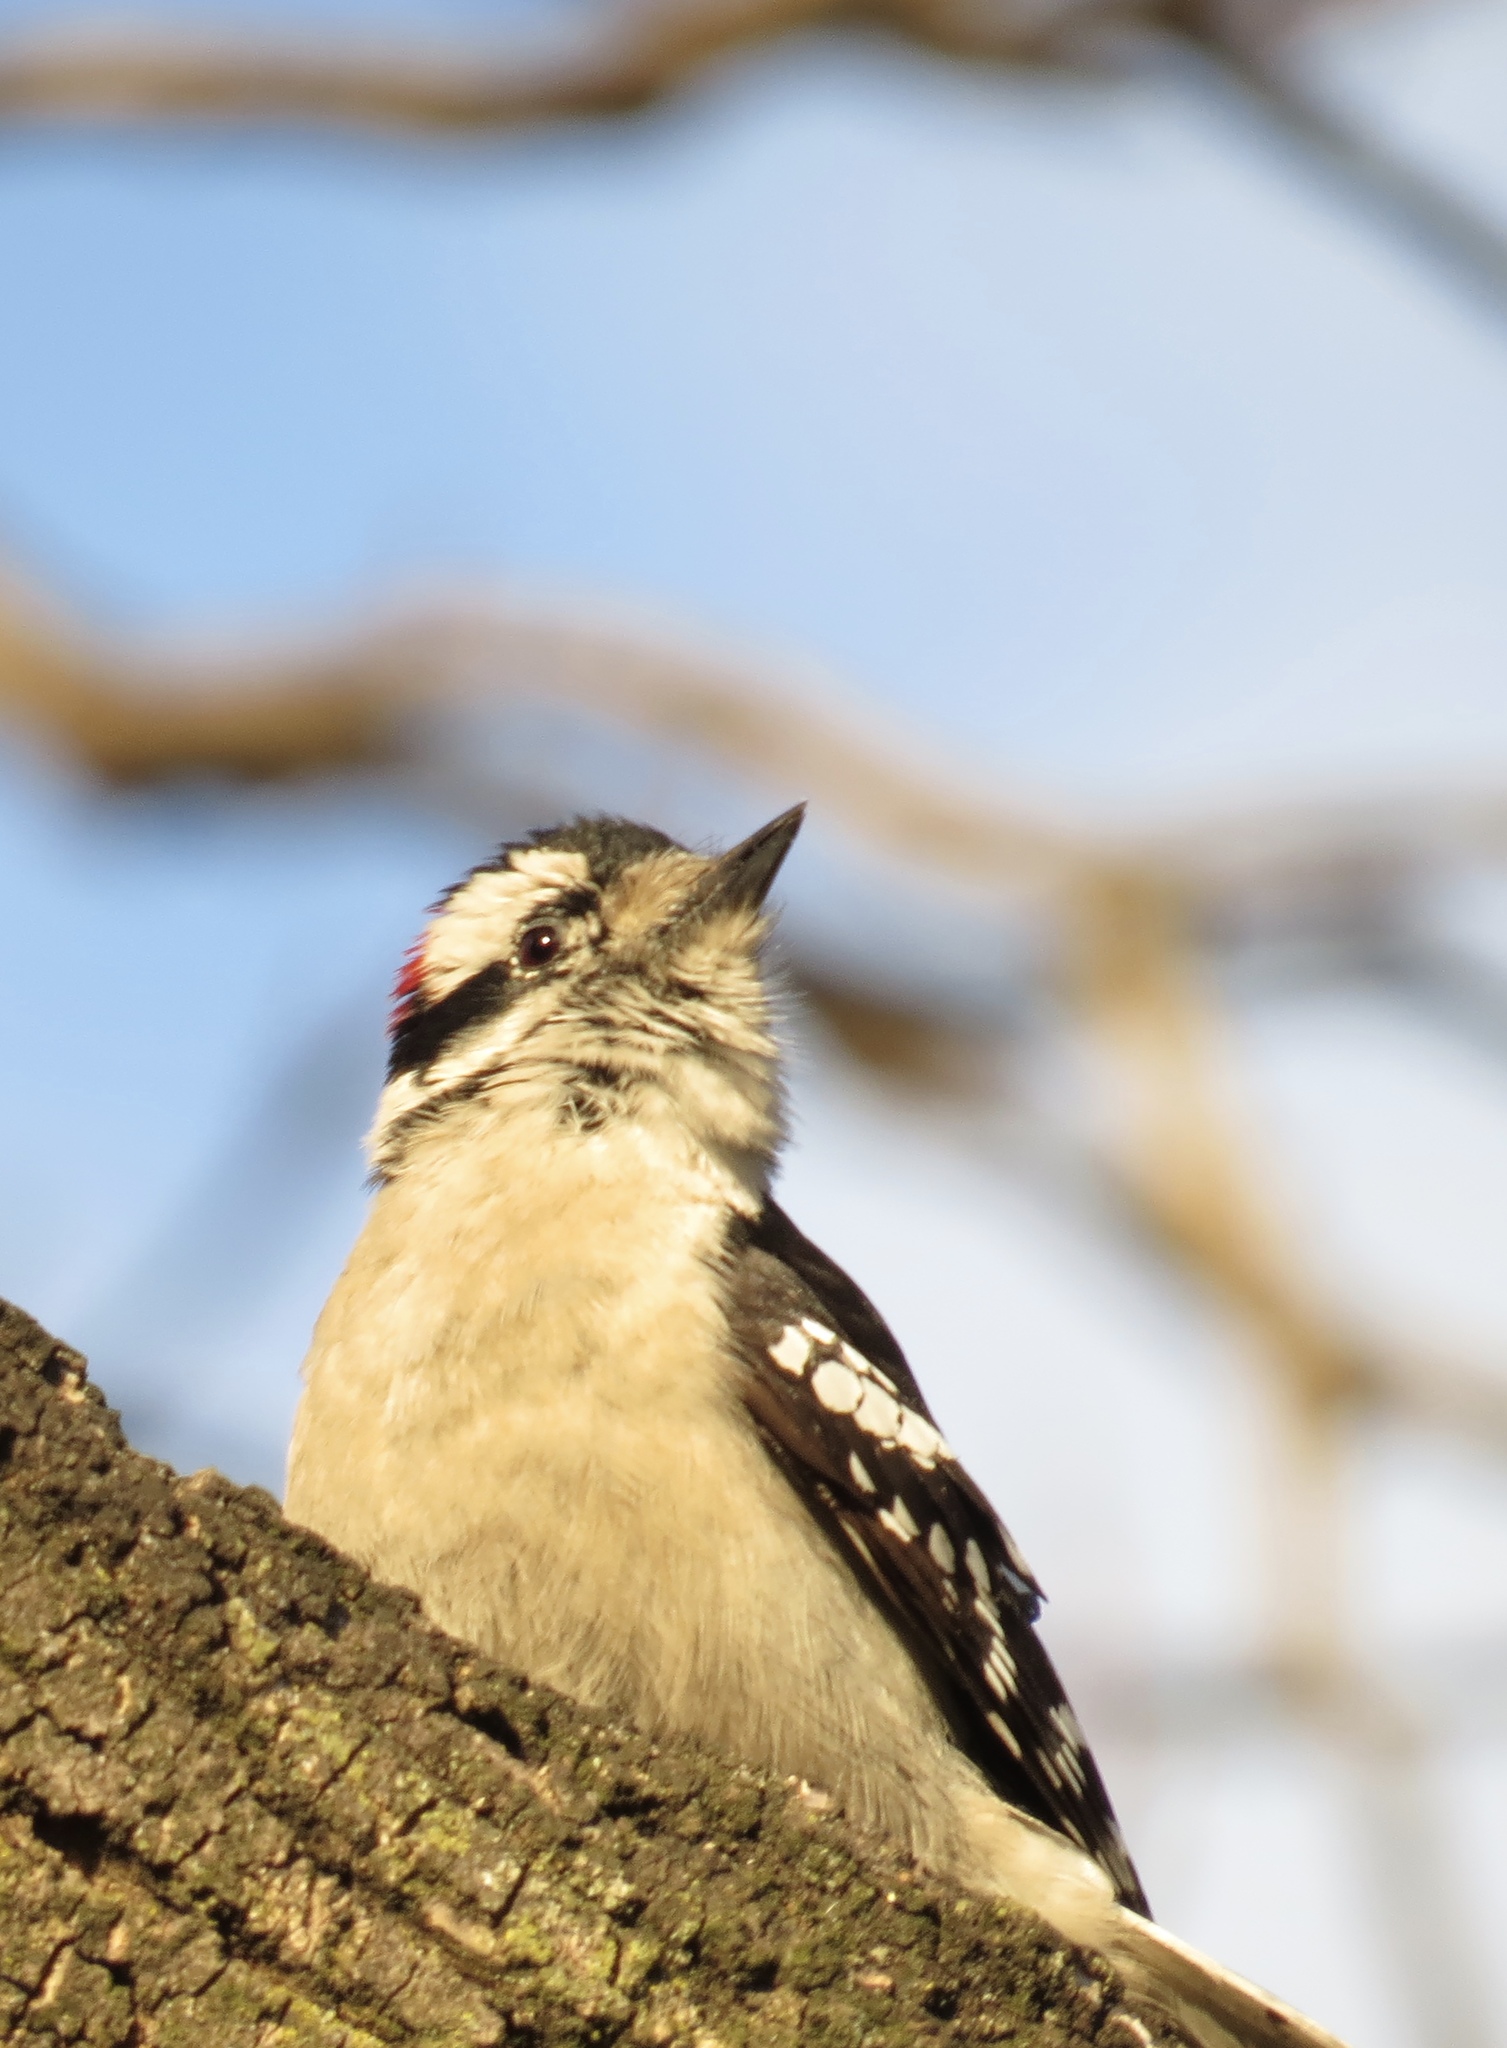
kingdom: Animalia
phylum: Chordata
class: Aves
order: Piciformes
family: Picidae
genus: Dryobates
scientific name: Dryobates pubescens
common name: Downy woodpecker
